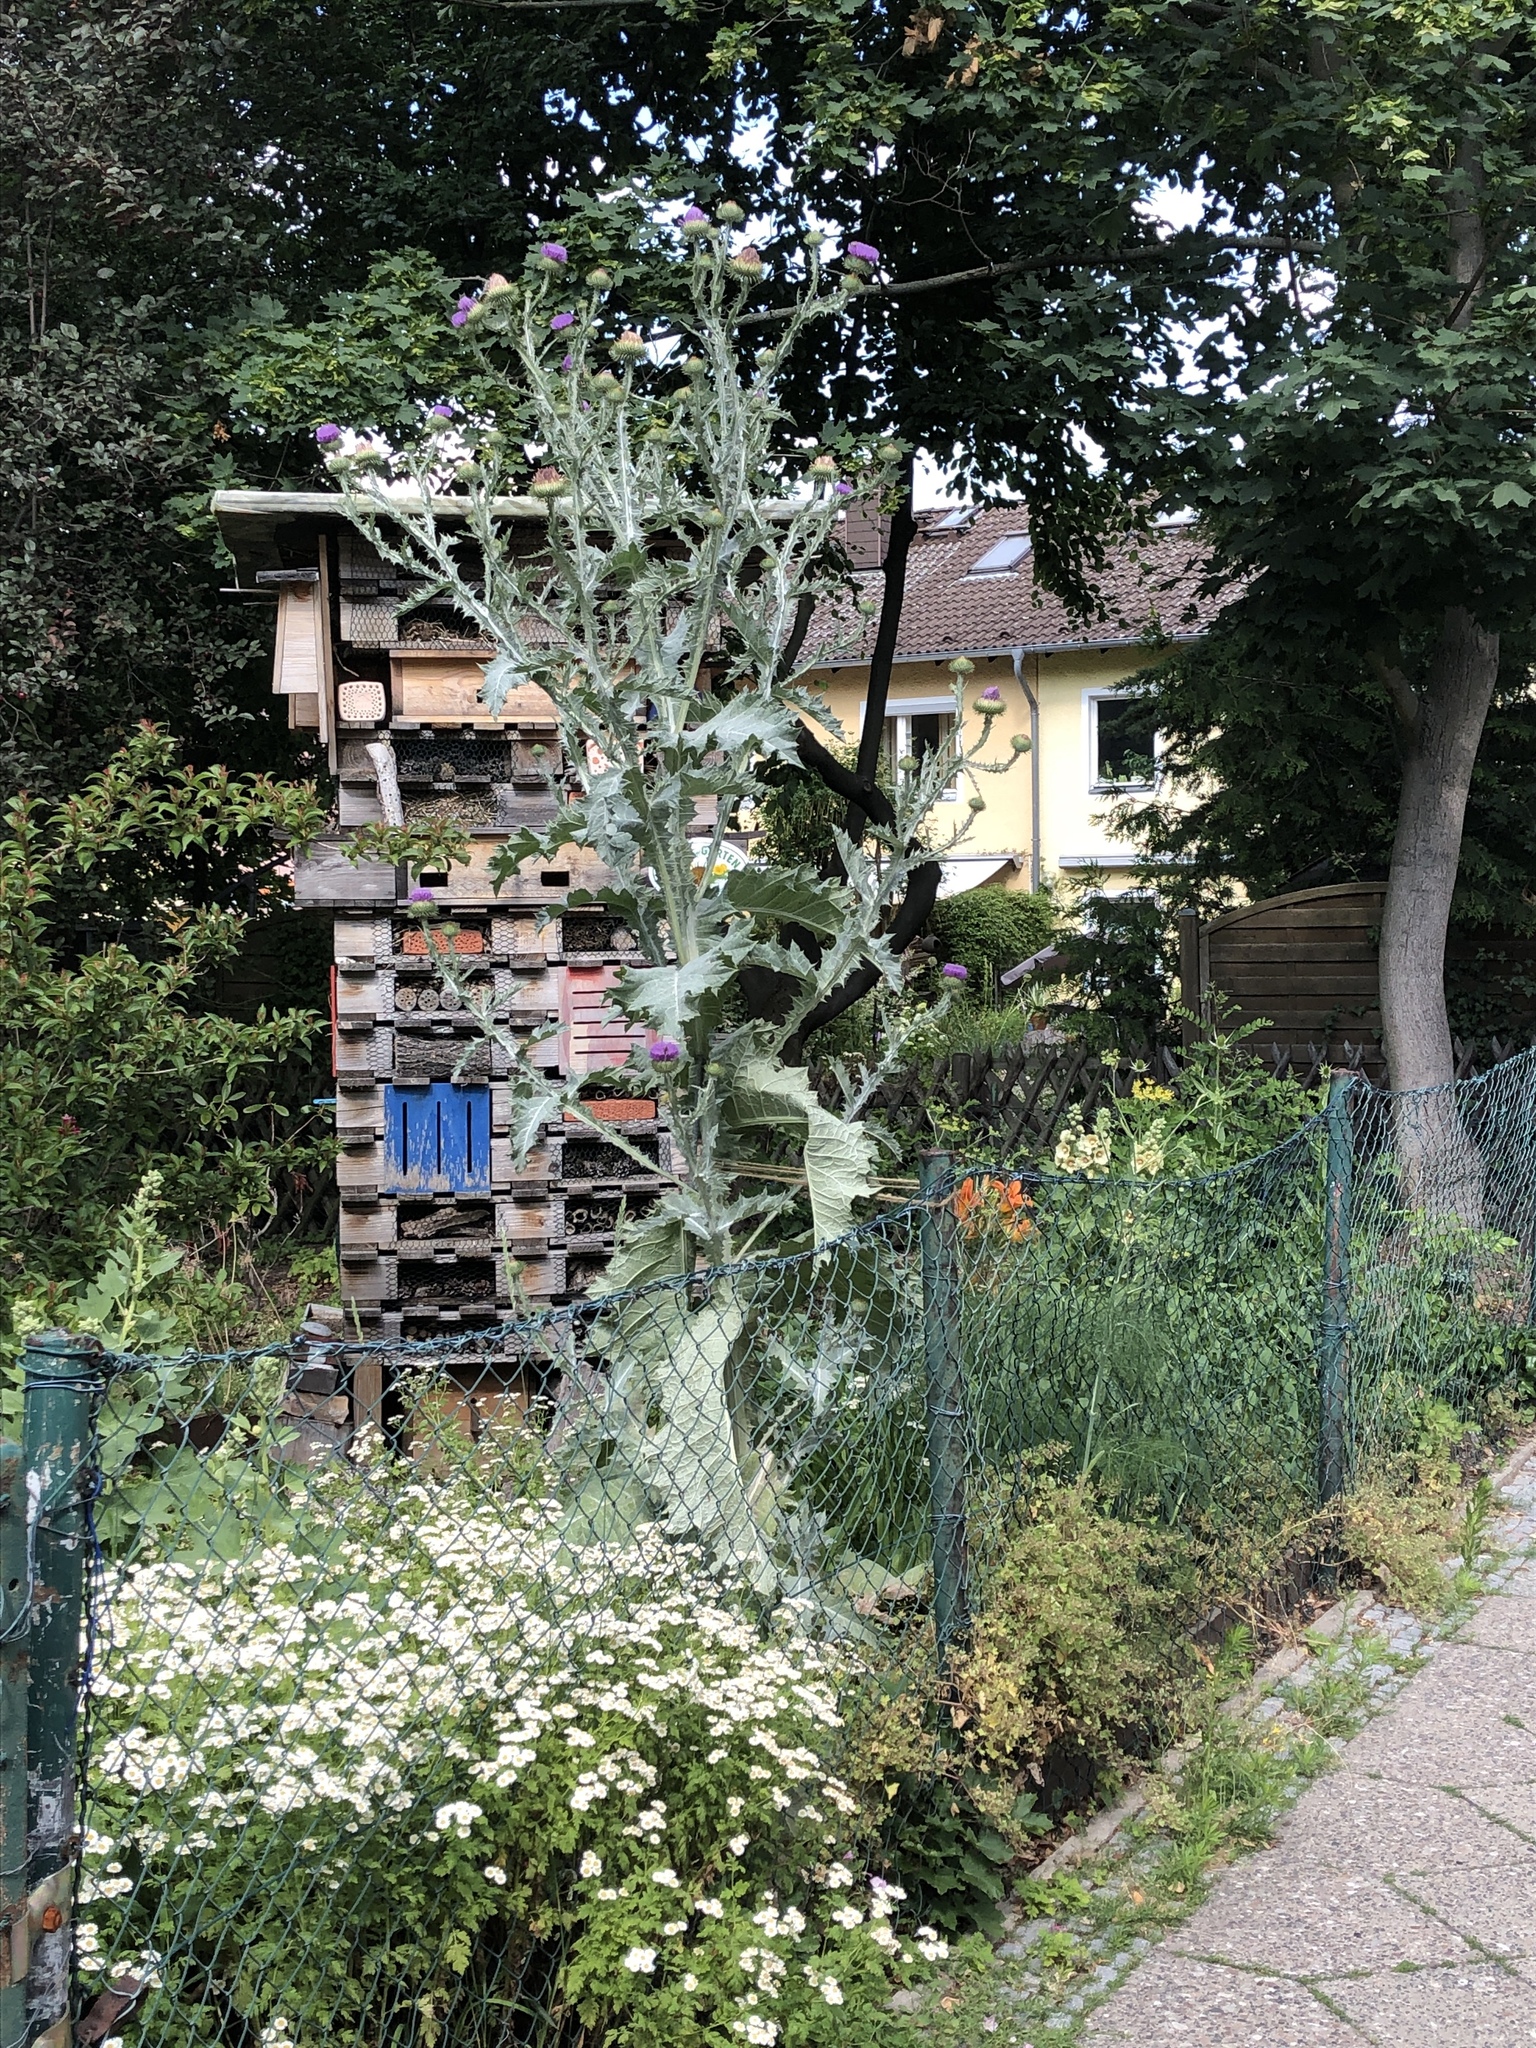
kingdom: Plantae
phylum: Tracheophyta
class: Magnoliopsida
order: Asterales
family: Asteraceae
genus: Onopordum
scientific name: Onopordum acanthium
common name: Scotch thistle
